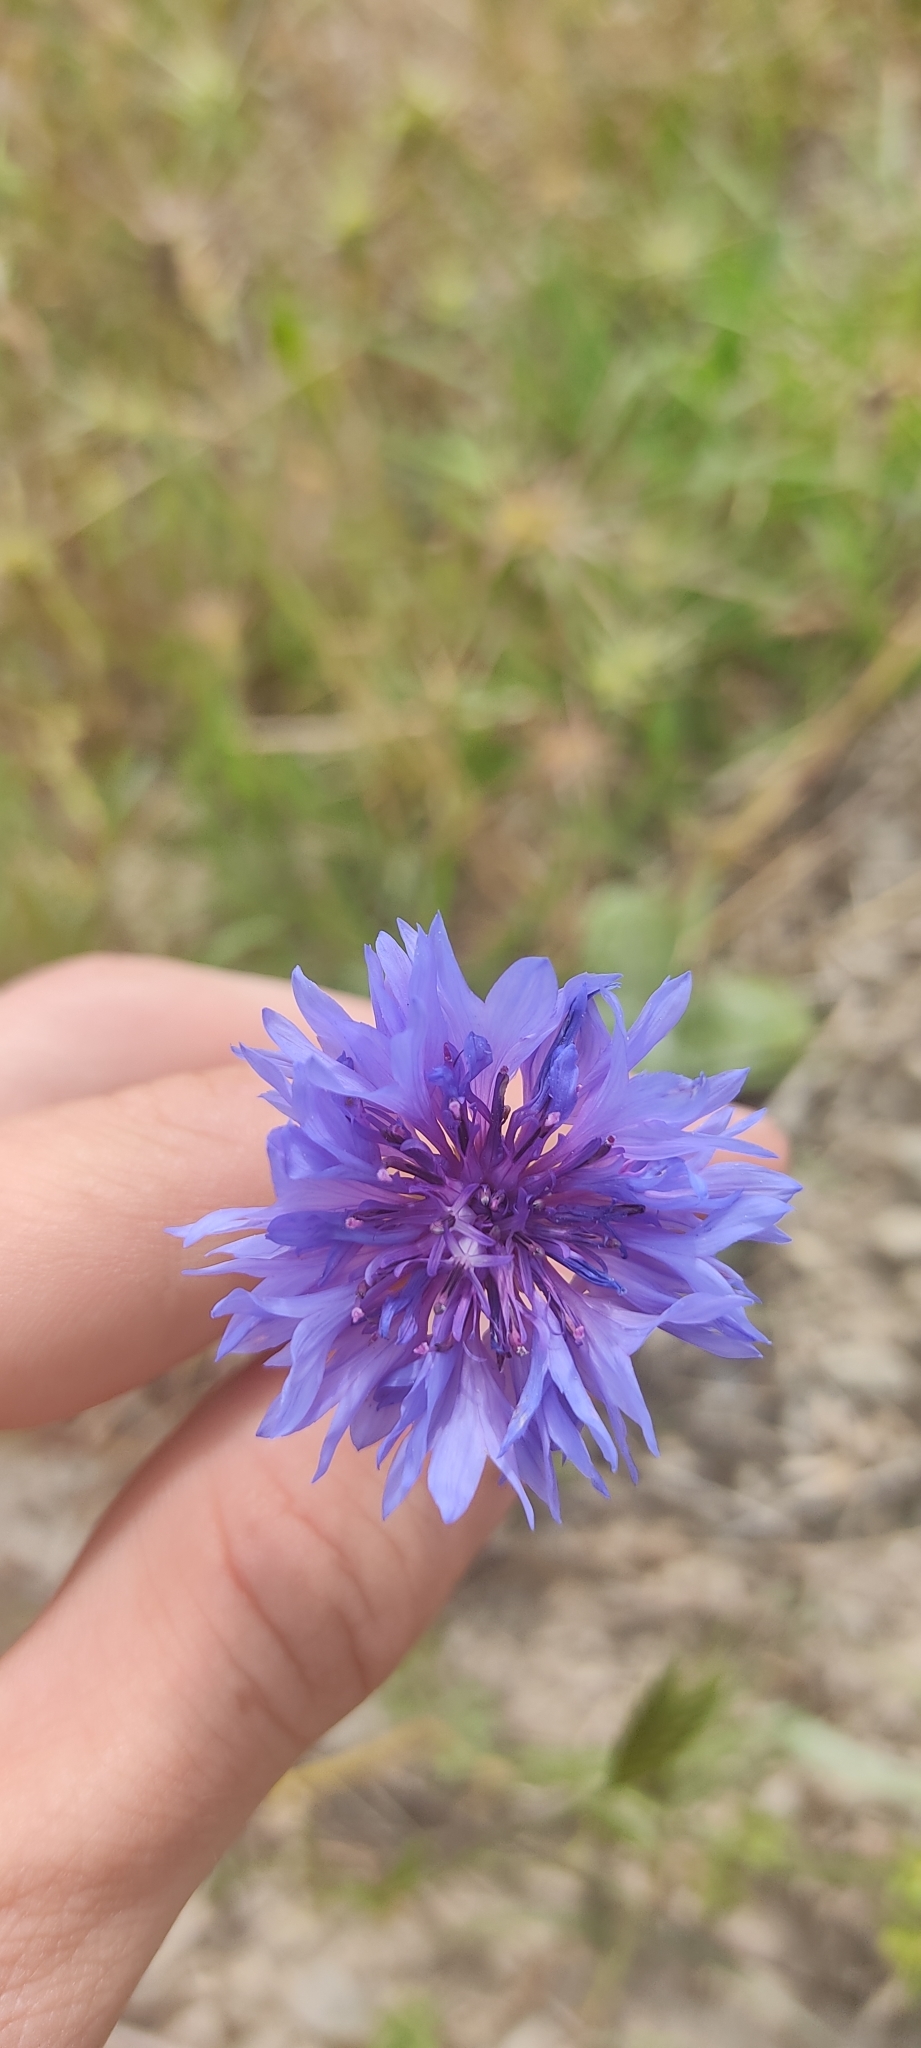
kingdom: Plantae
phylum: Tracheophyta
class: Magnoliopsida
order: Asterales
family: Asteraceae
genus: Centaurea
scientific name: Centaurea cyanus
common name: Cornflower
